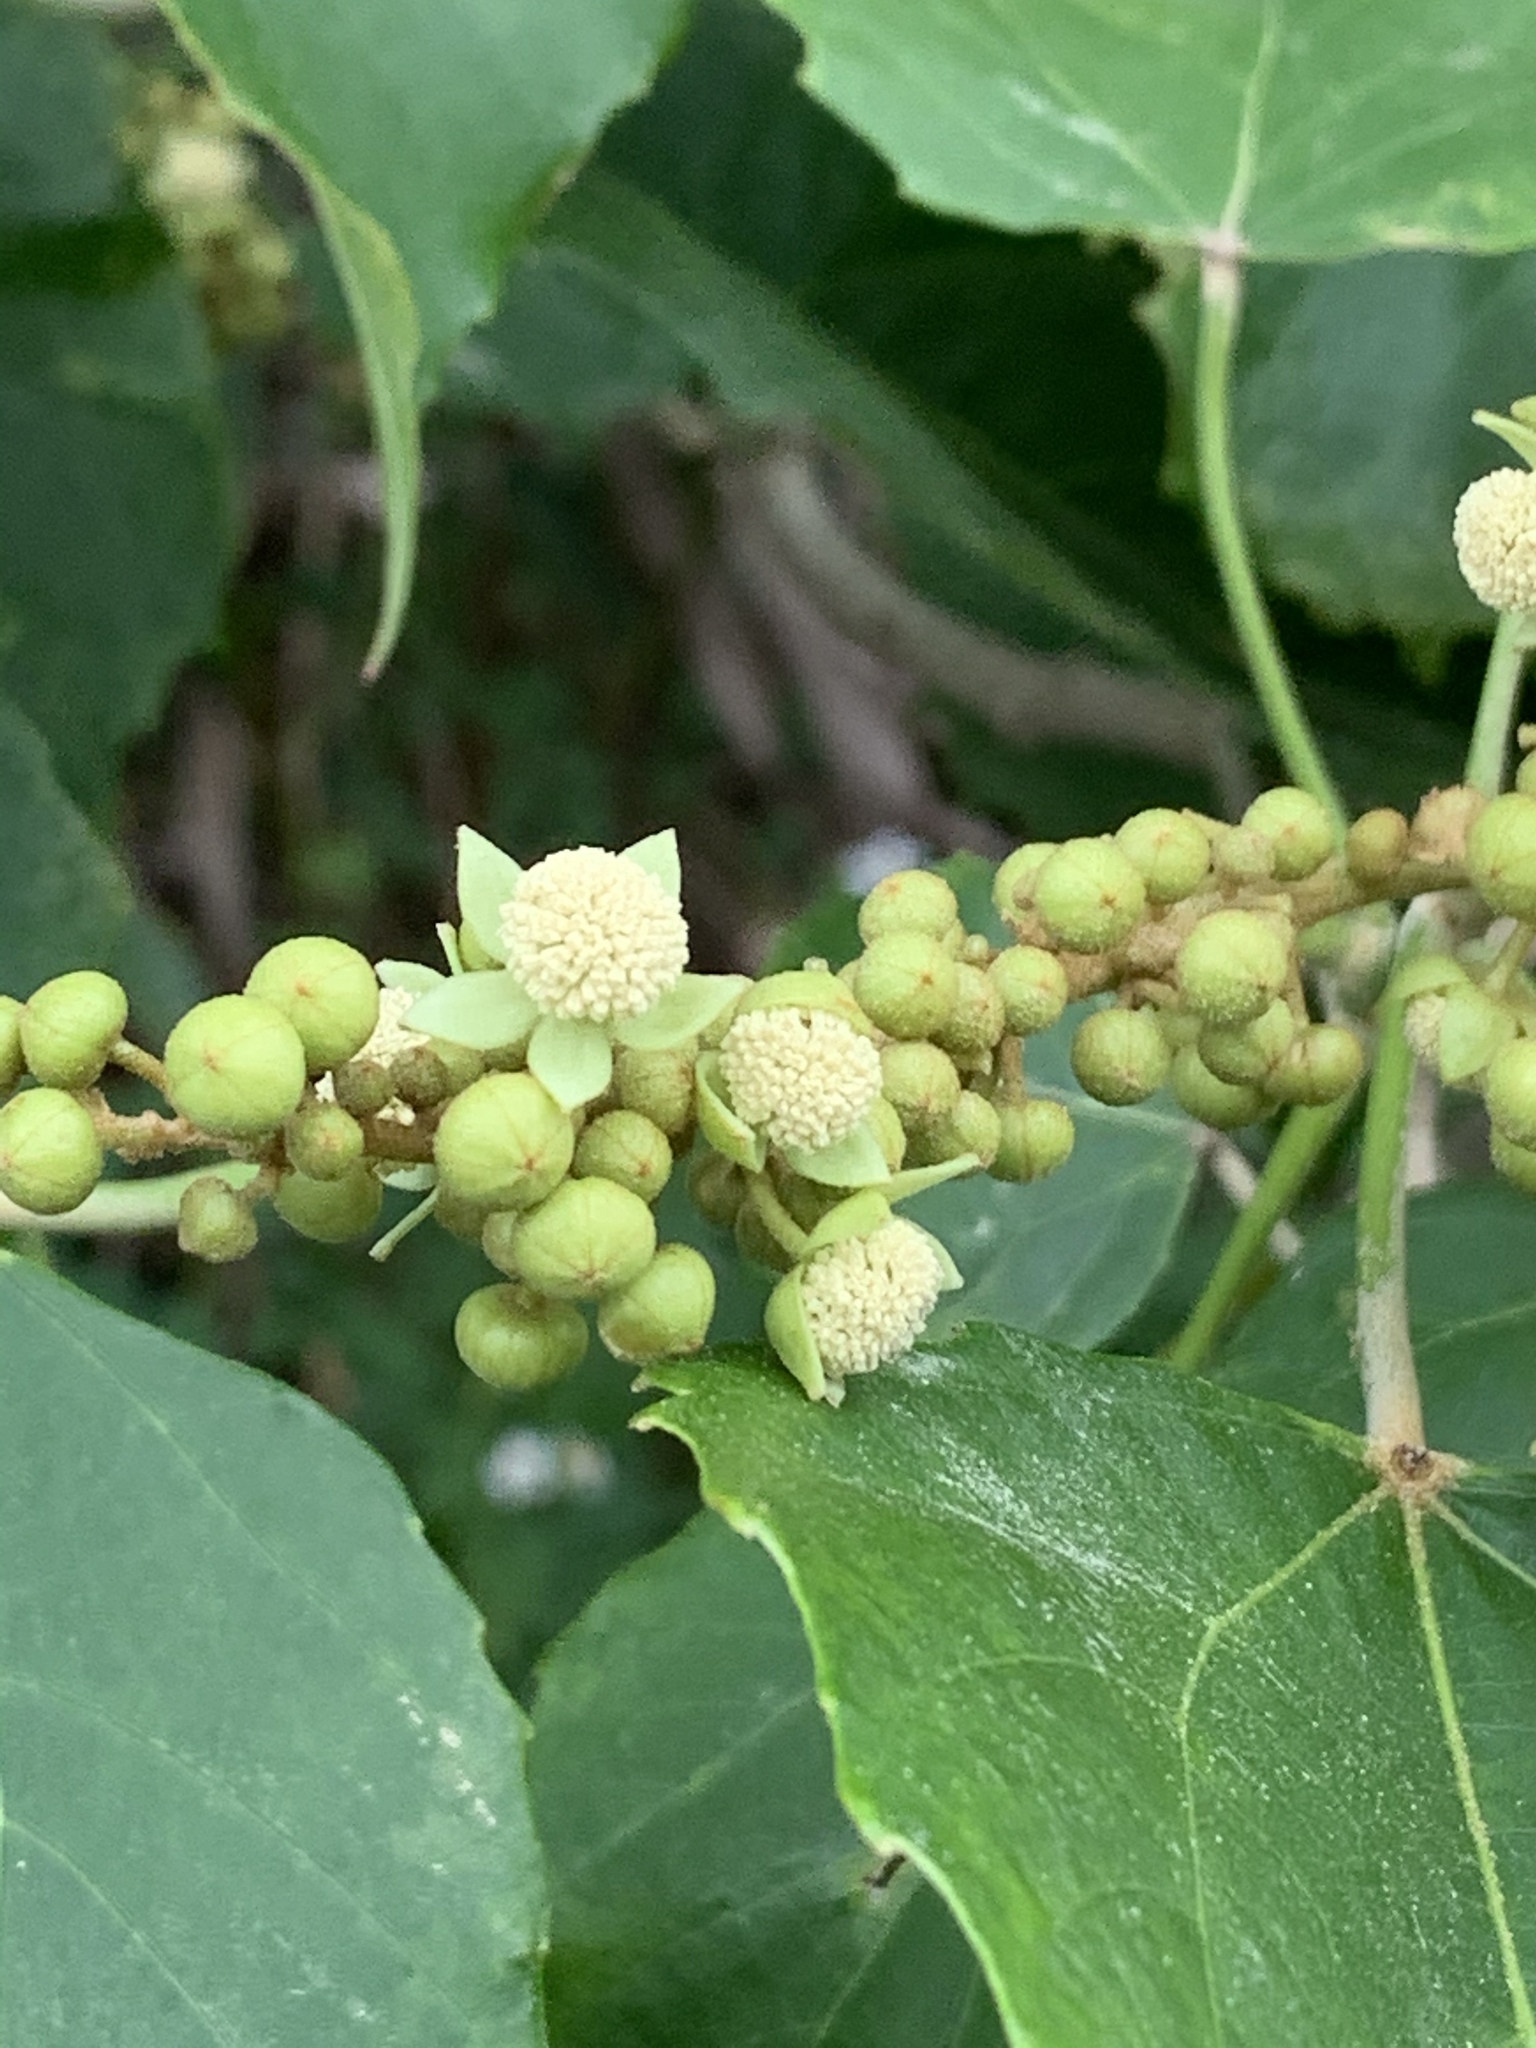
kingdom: Plantae
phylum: Tracheophyta
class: Magnoliopsida
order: Malpighiales
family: Euphorbiaceae
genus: Melanolepis
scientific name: Melanolepis multiglandulosa
